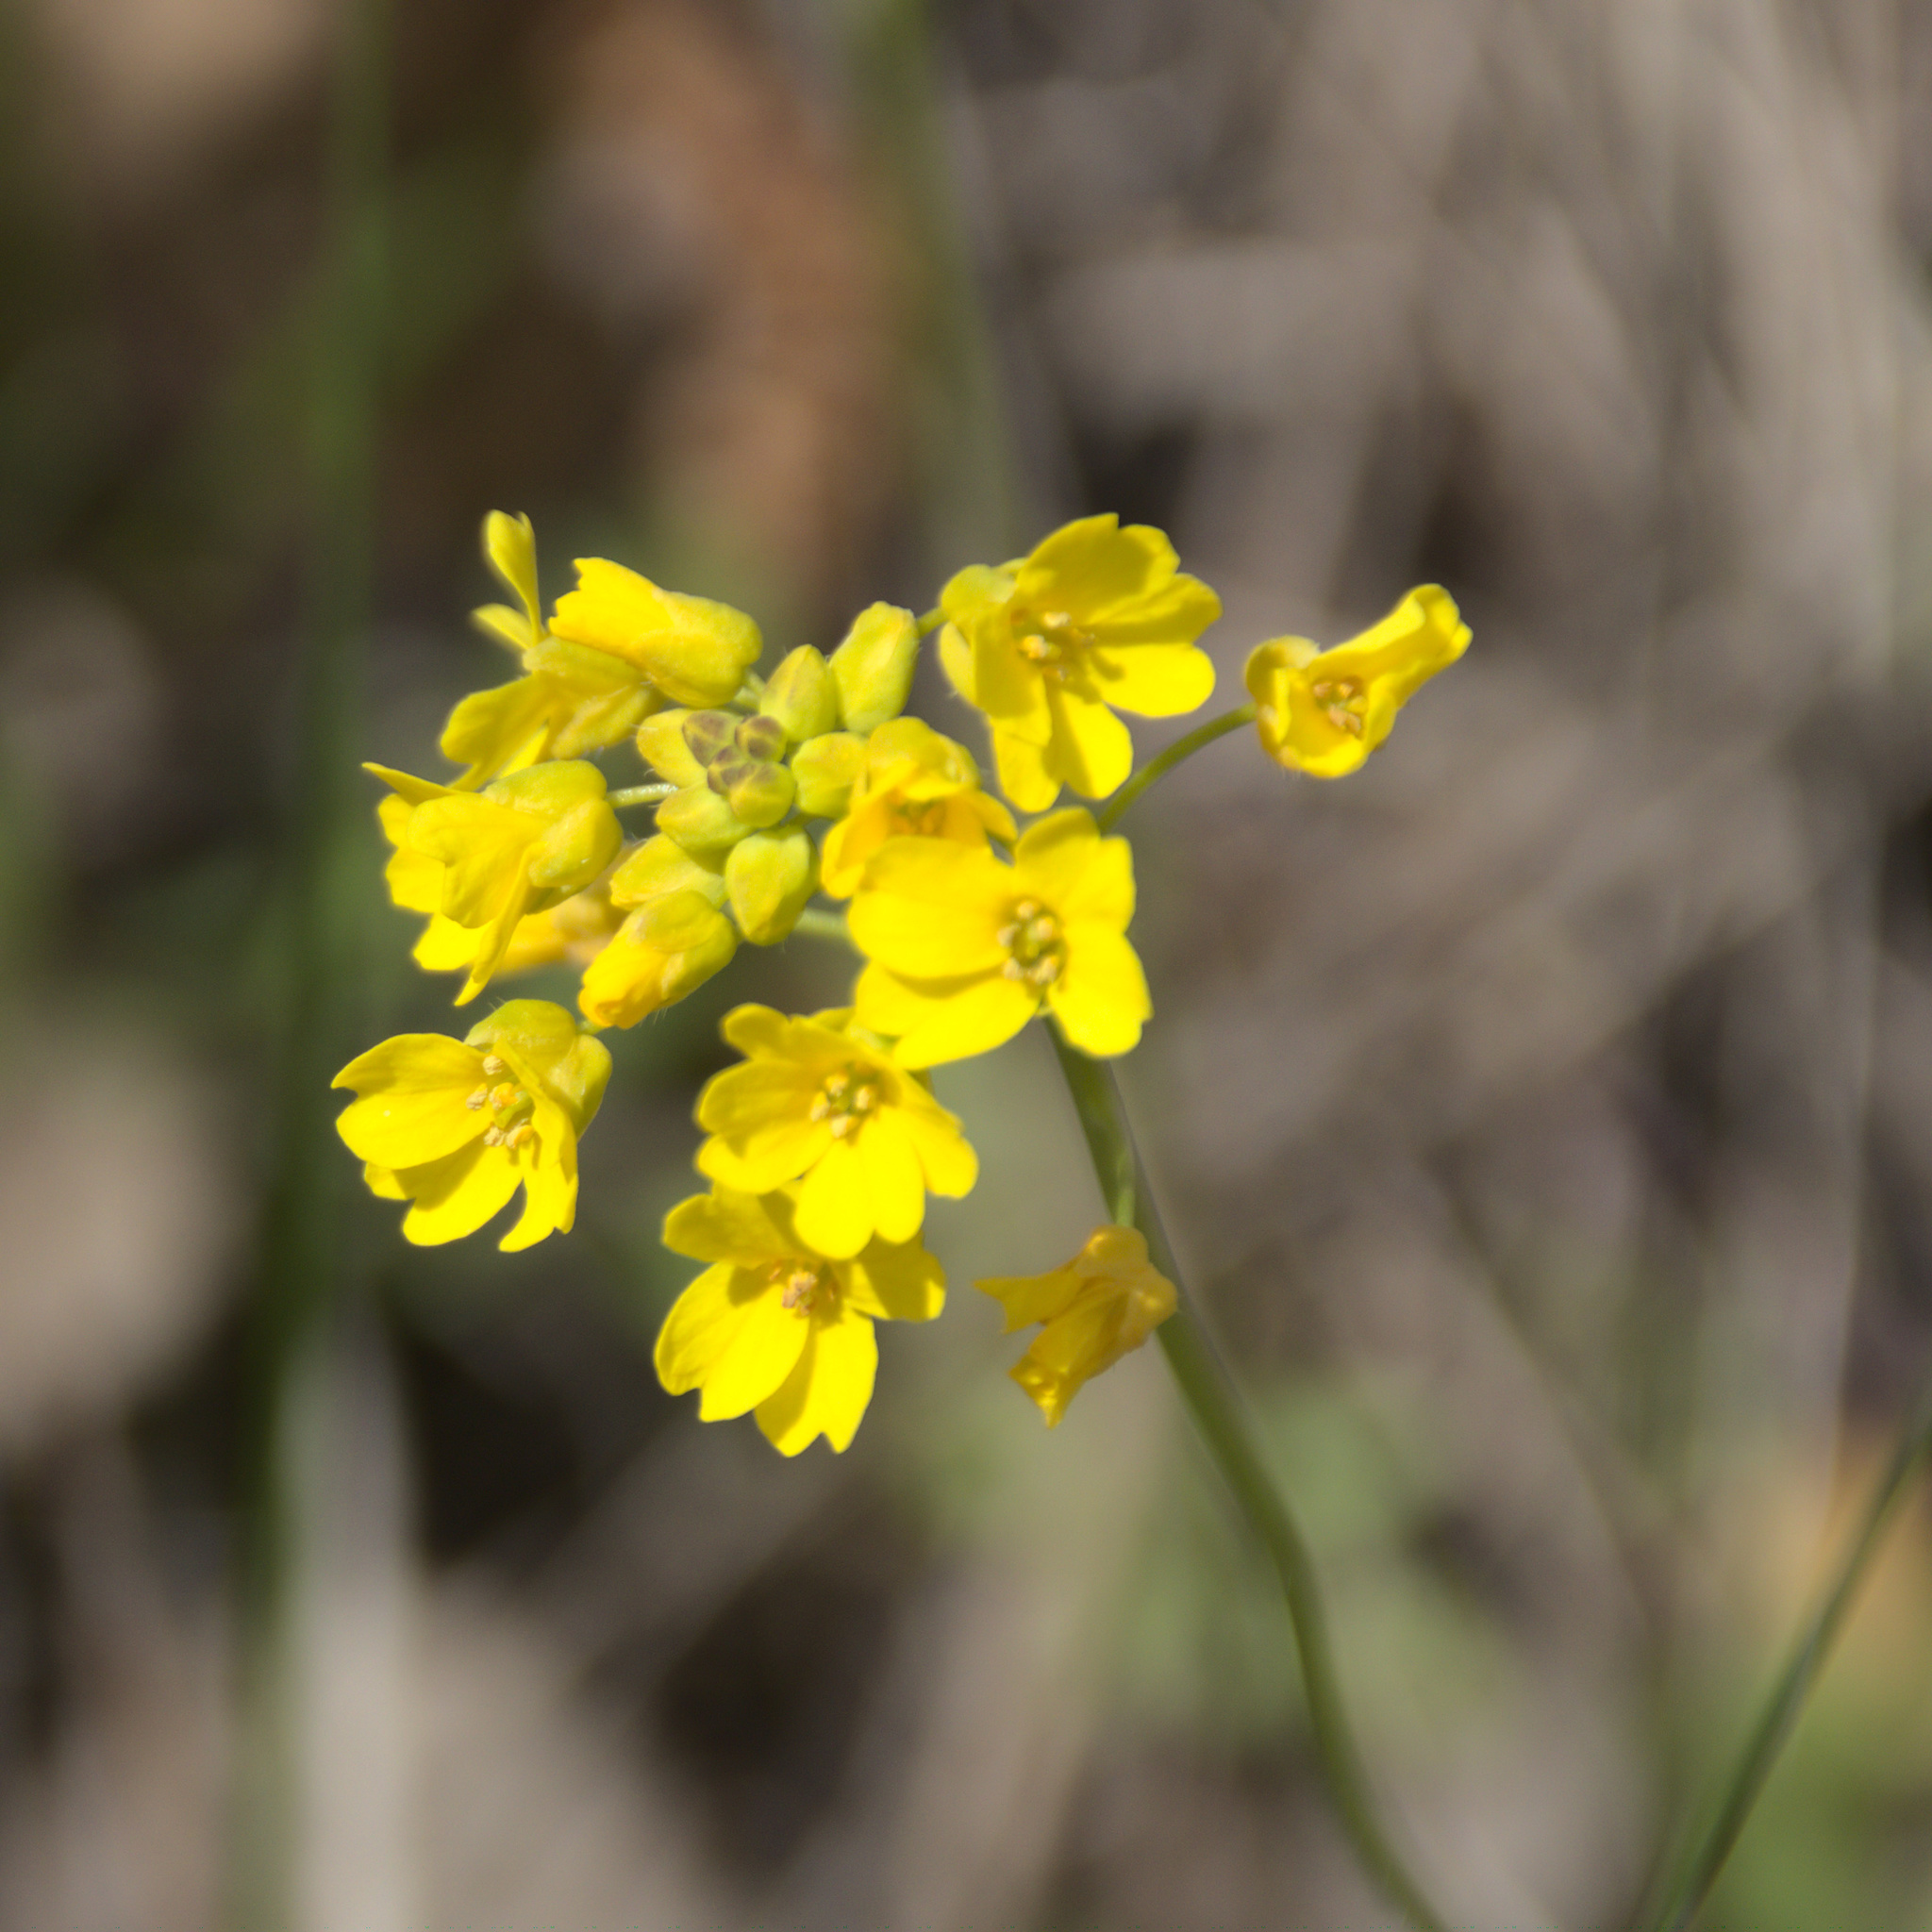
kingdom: Plantae
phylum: Tracheophyta
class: Magnoliopsida
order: Brassicales
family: Brassicaceae
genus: Draba
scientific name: Draba sibirica
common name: Siberian draba
